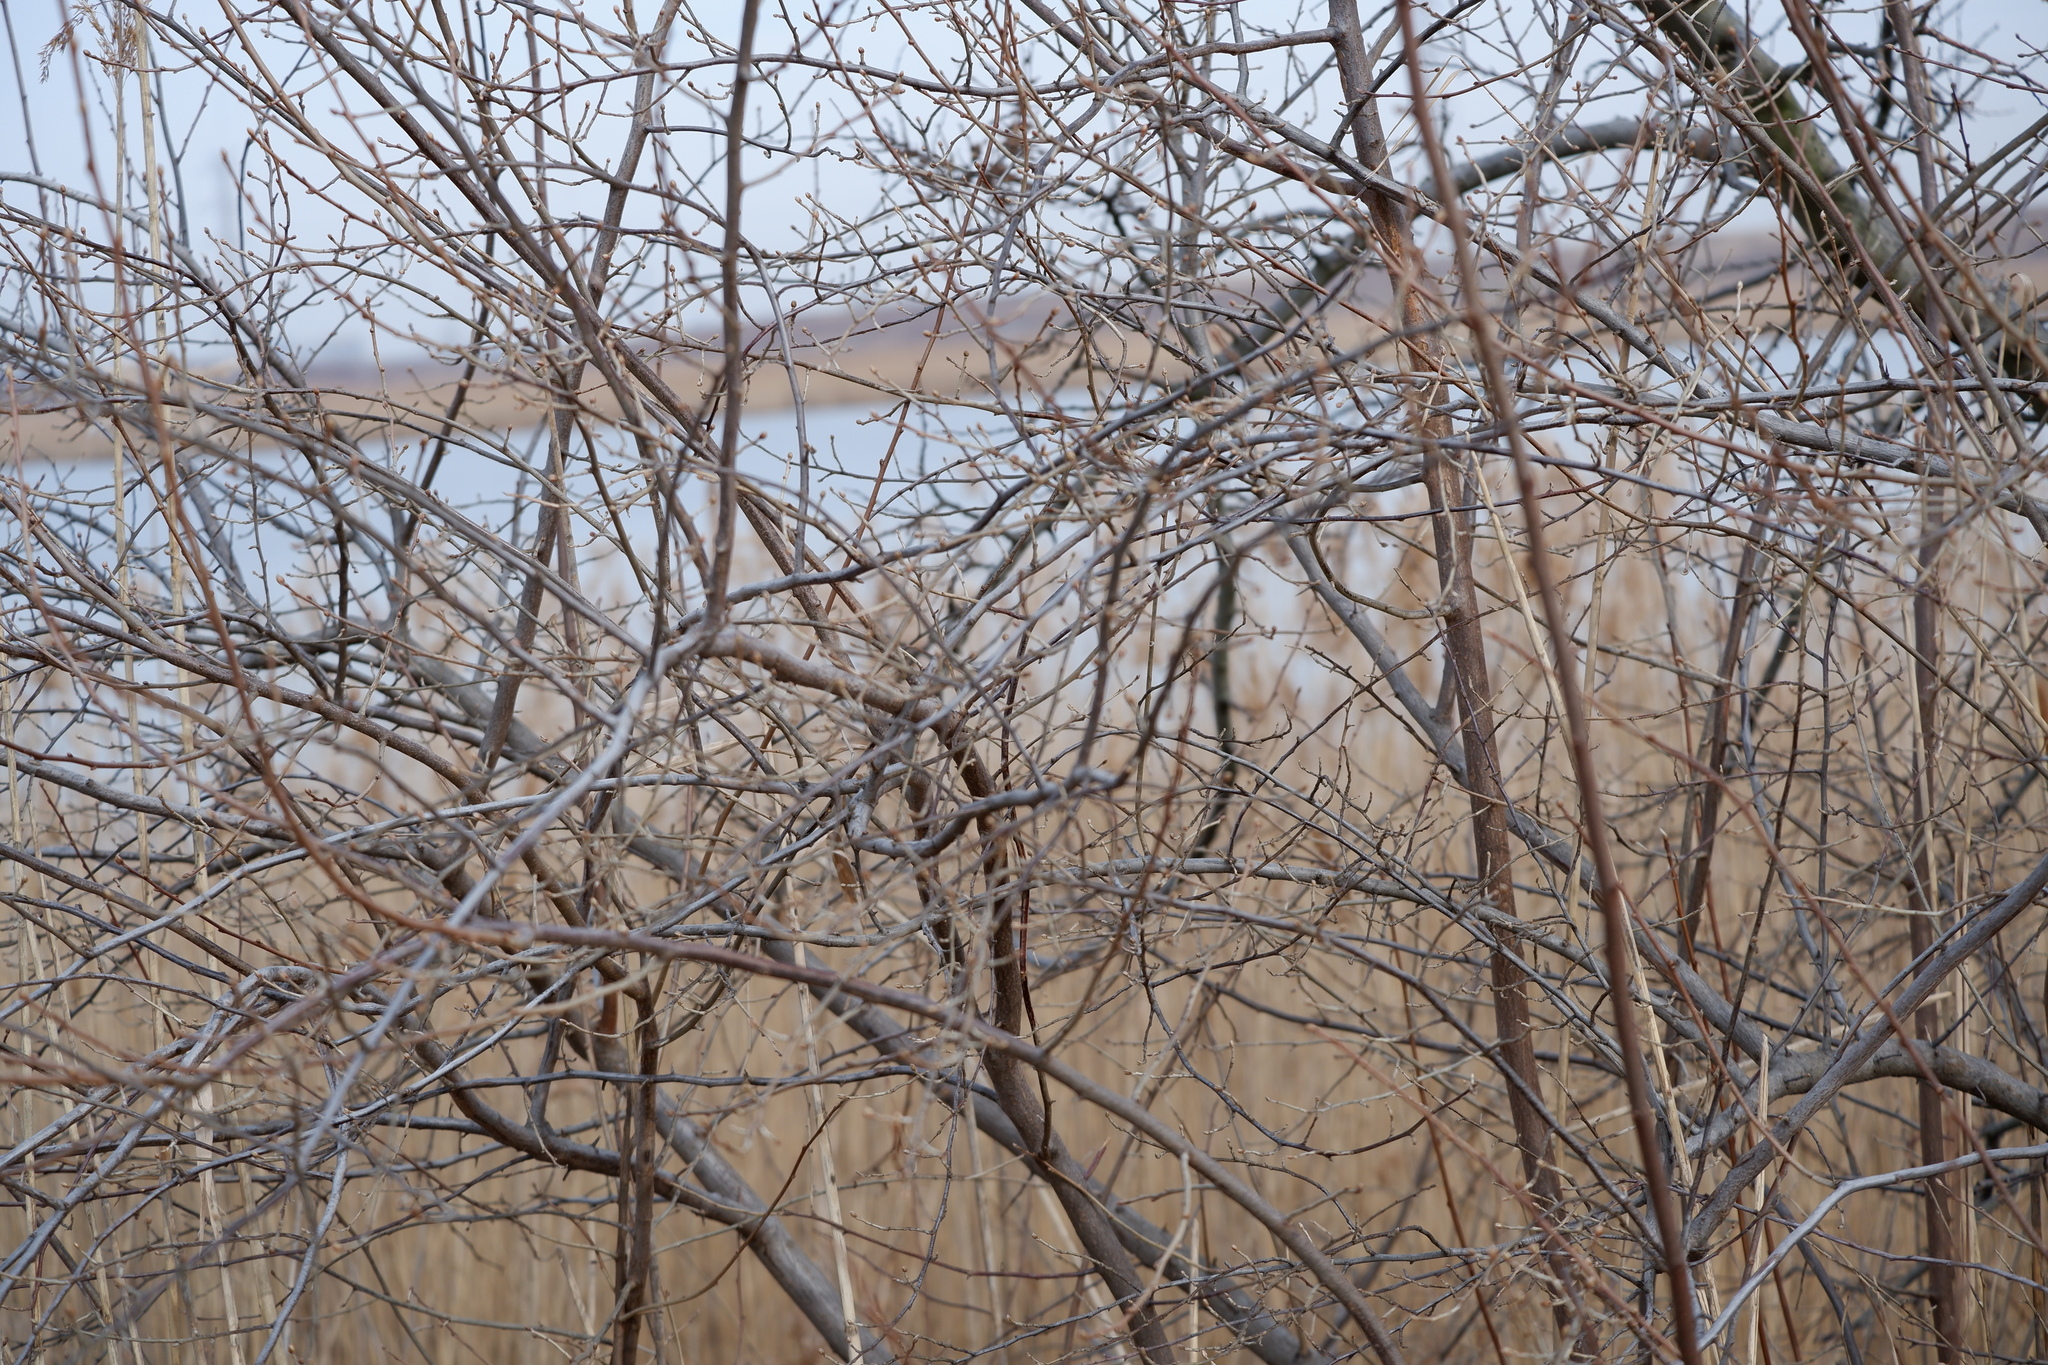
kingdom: Plantae
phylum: Tracheophyta
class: Magnoliopsida
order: Rosales
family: Elaeagnaceae
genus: Elaeagnus
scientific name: Elaeagnus umbellata
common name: Autumn olive
